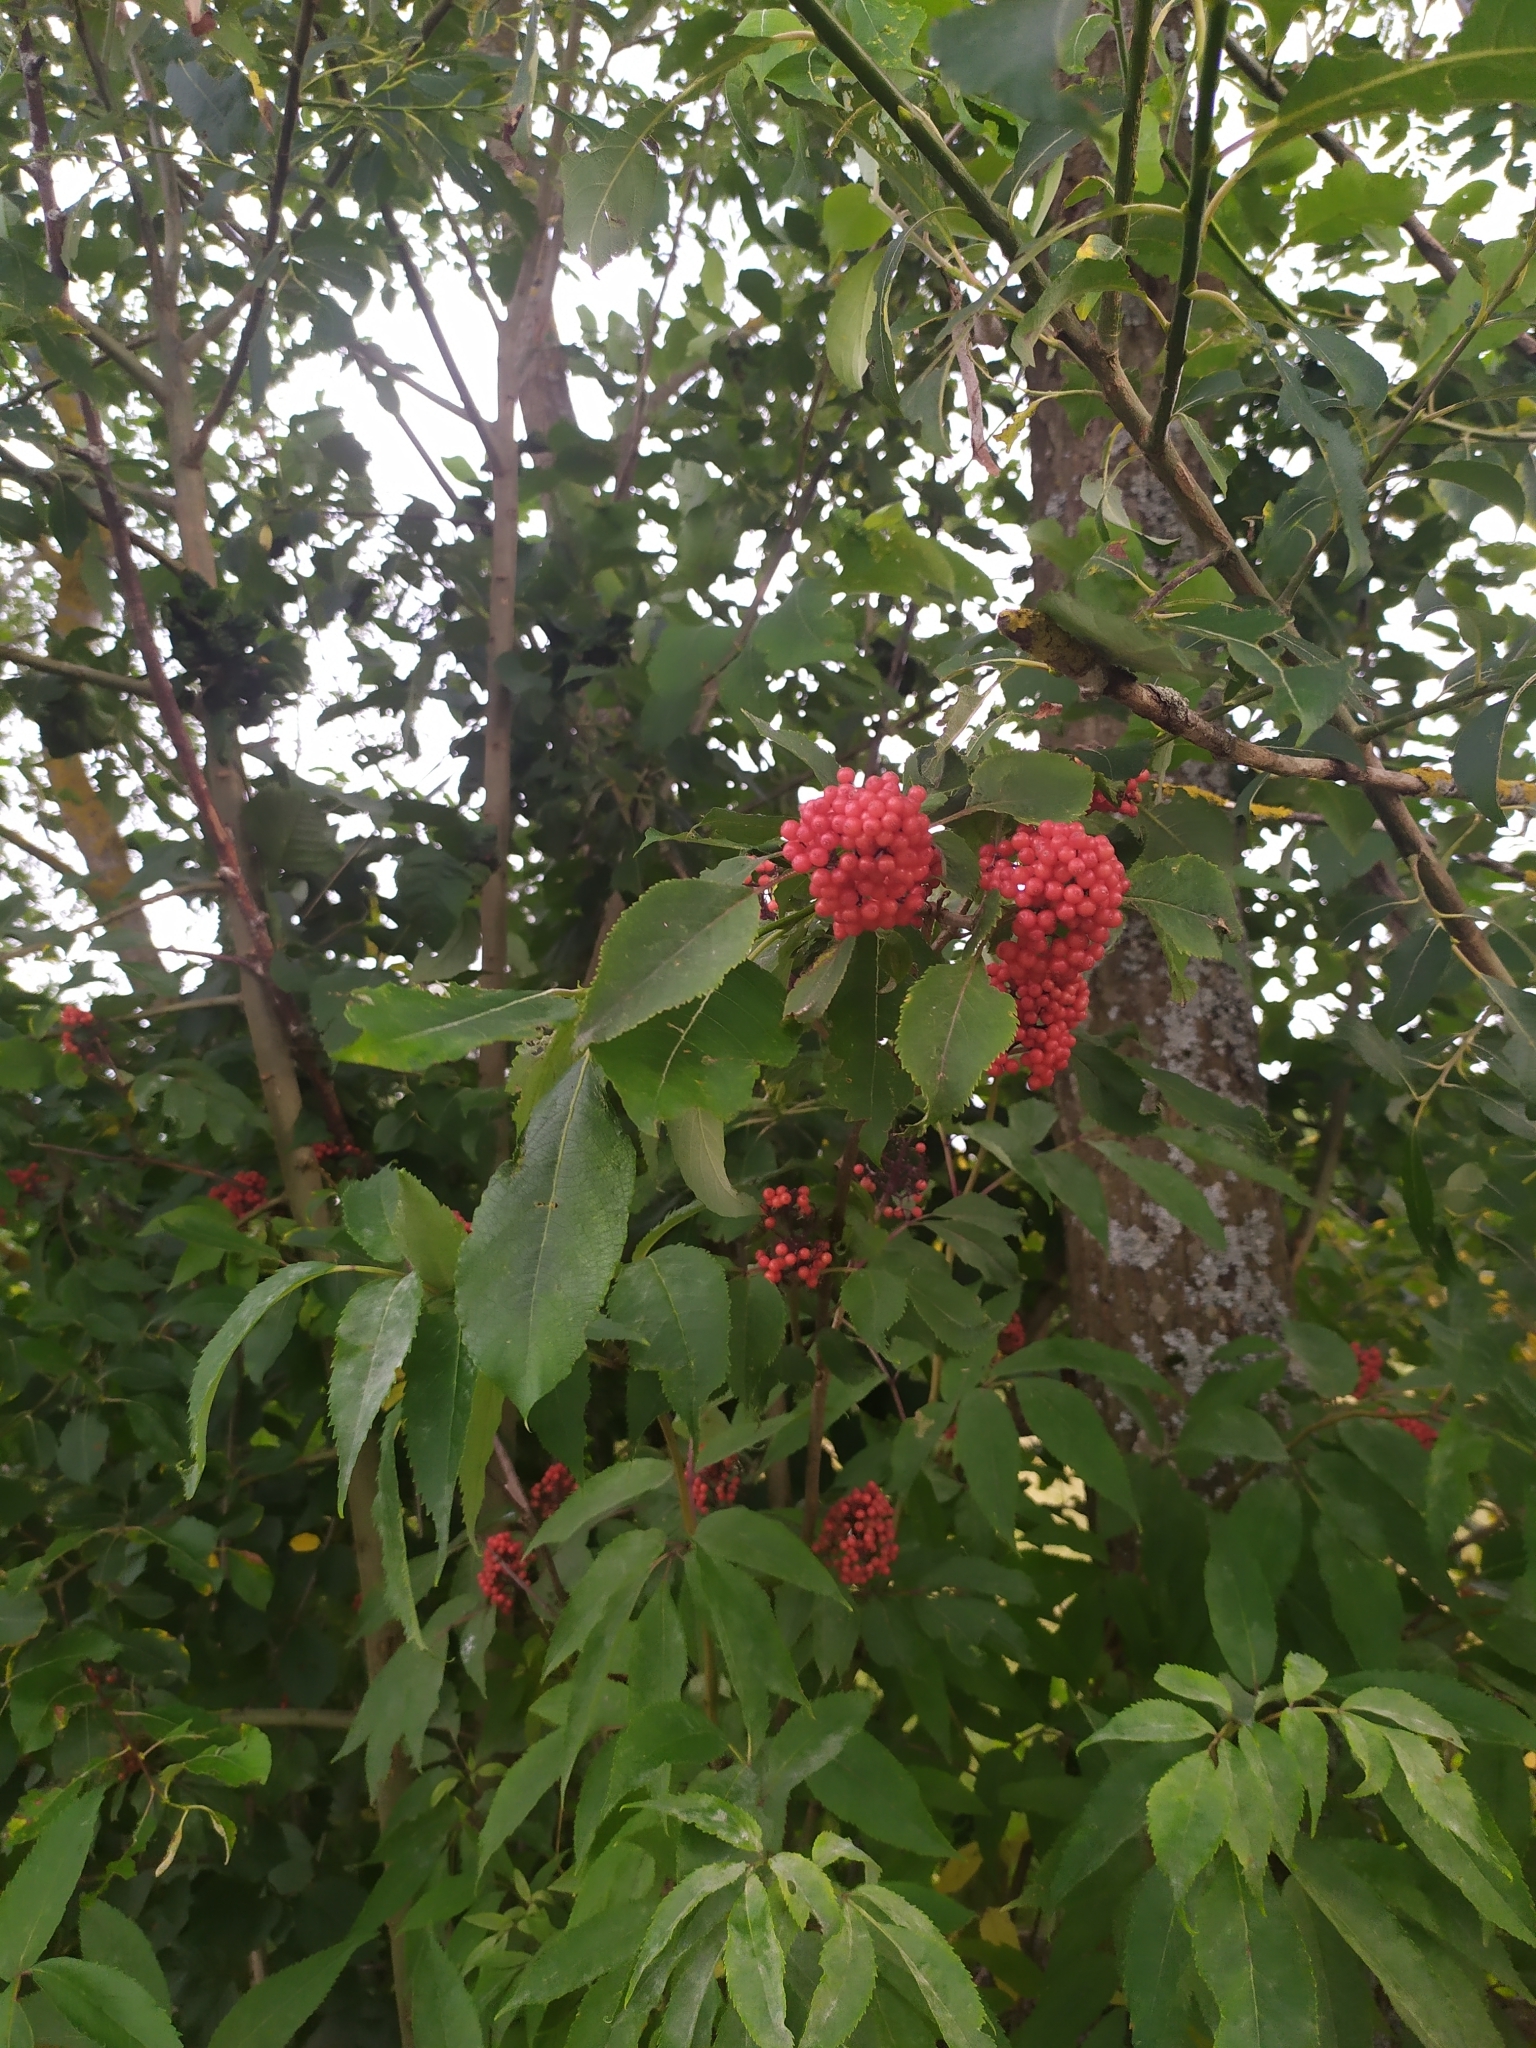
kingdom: Plantae
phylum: Tracheophyta
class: Magnoliopsida
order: Dipsacales
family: Viburnaceae
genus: Sambucus
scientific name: Sambucus racemosa
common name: Red-berried elder
